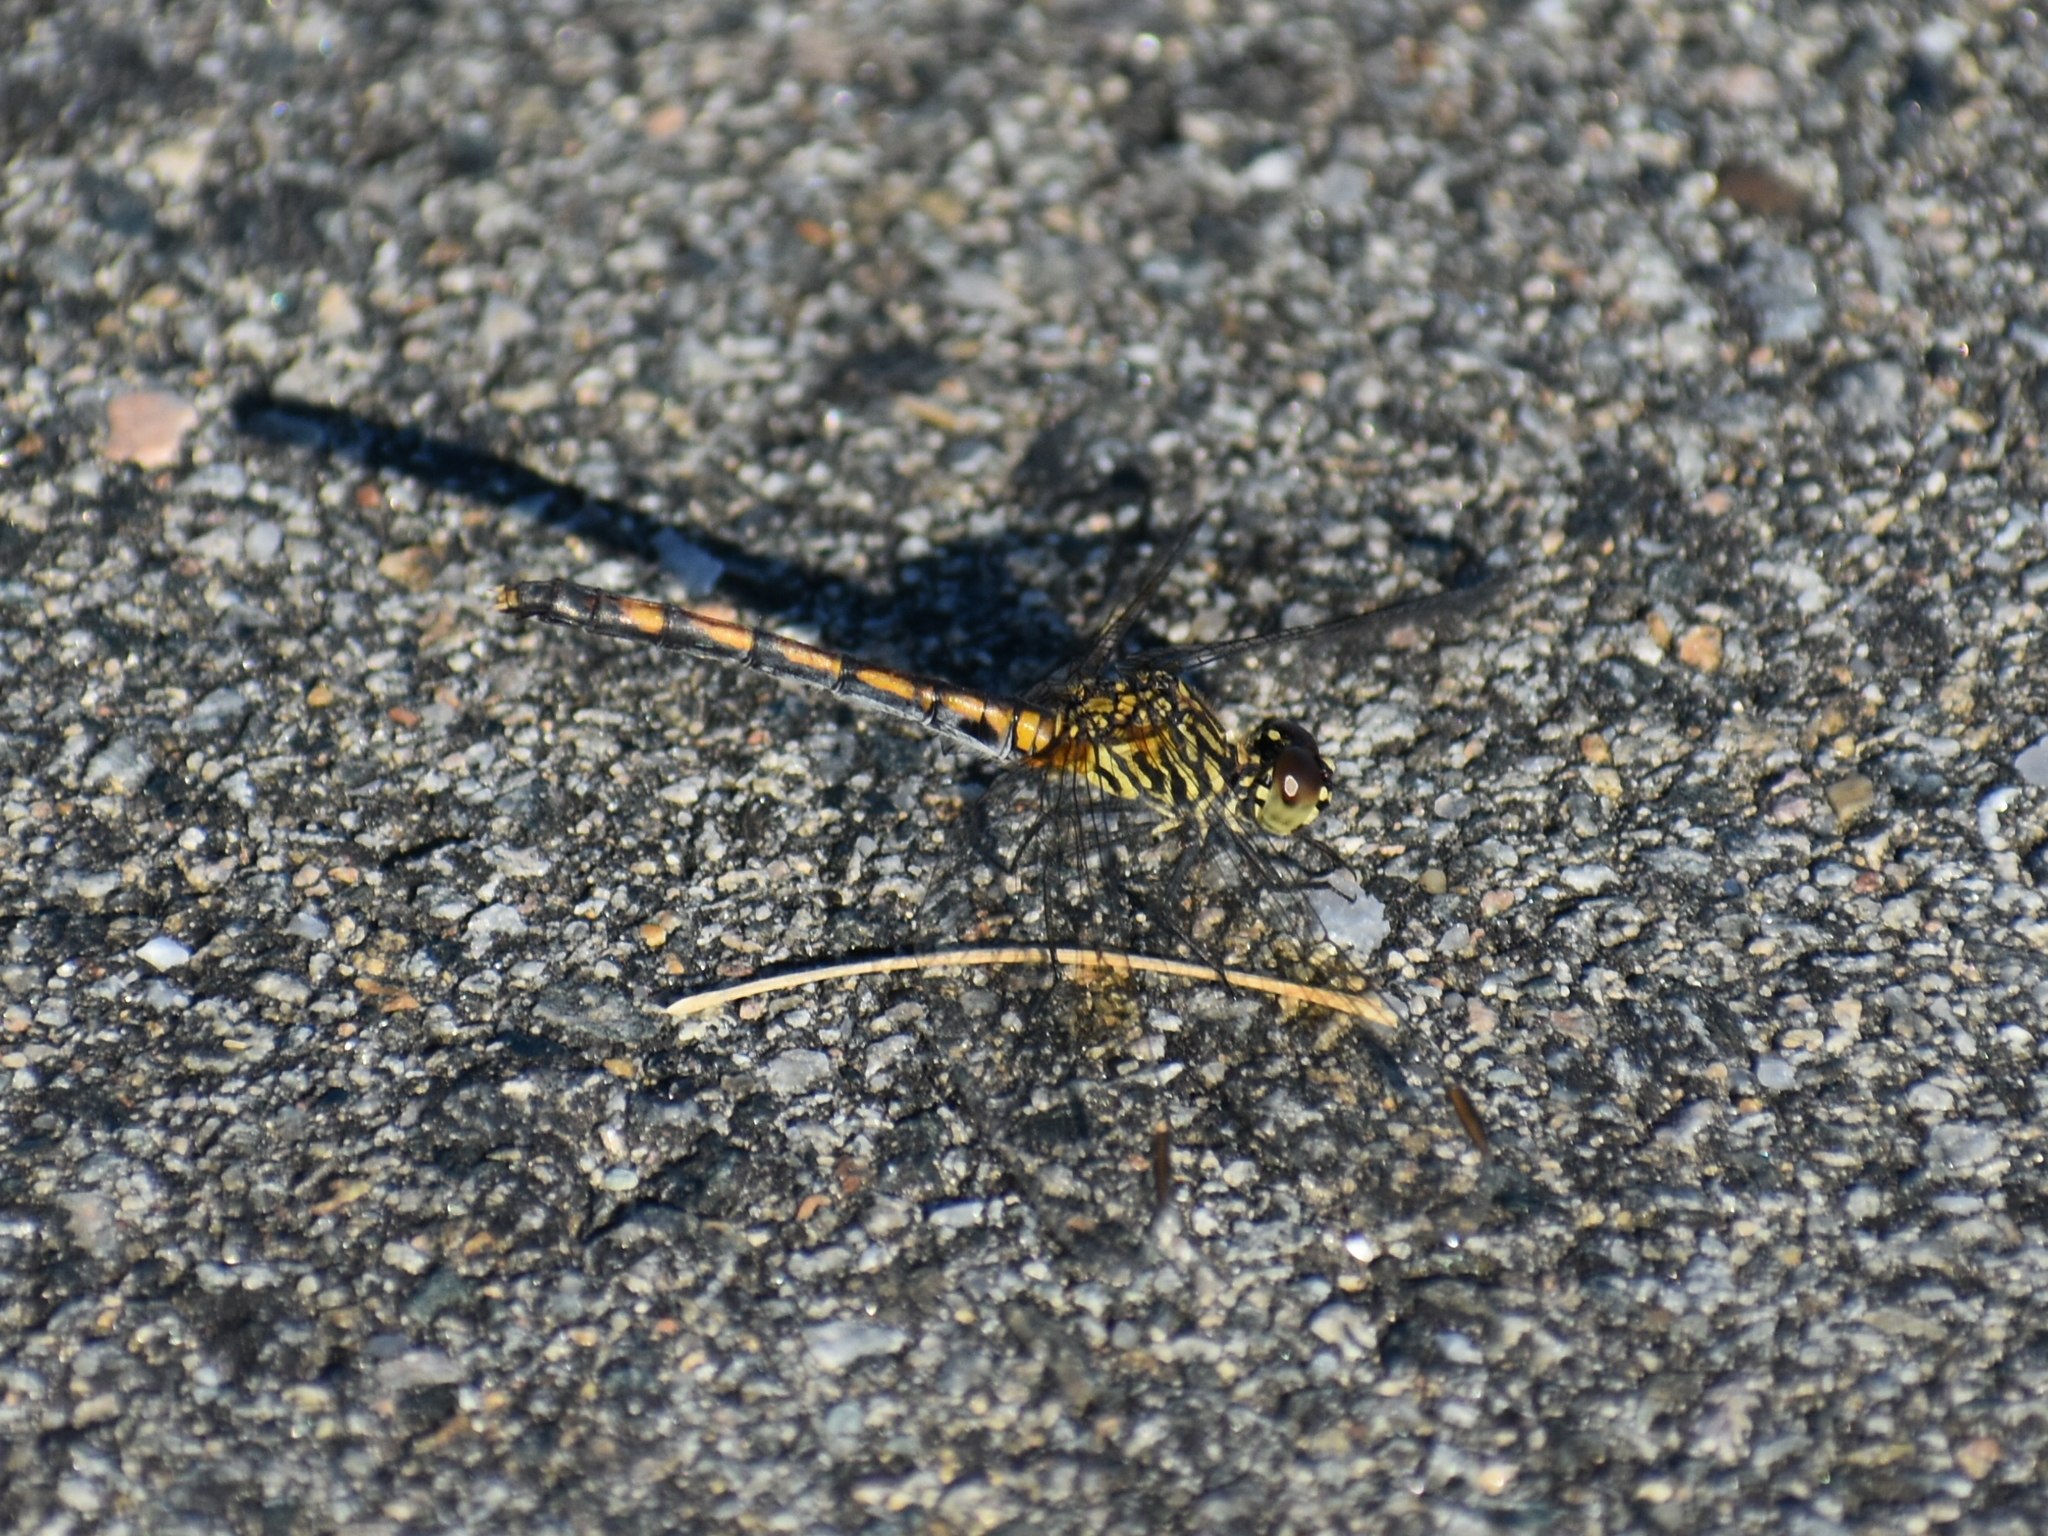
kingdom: Animalia
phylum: Arthropoda
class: Insecta
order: Odonata
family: Libellulidae
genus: Erythrodiplax
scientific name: Erythrodiplax berenice
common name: Seaside dragonlet
